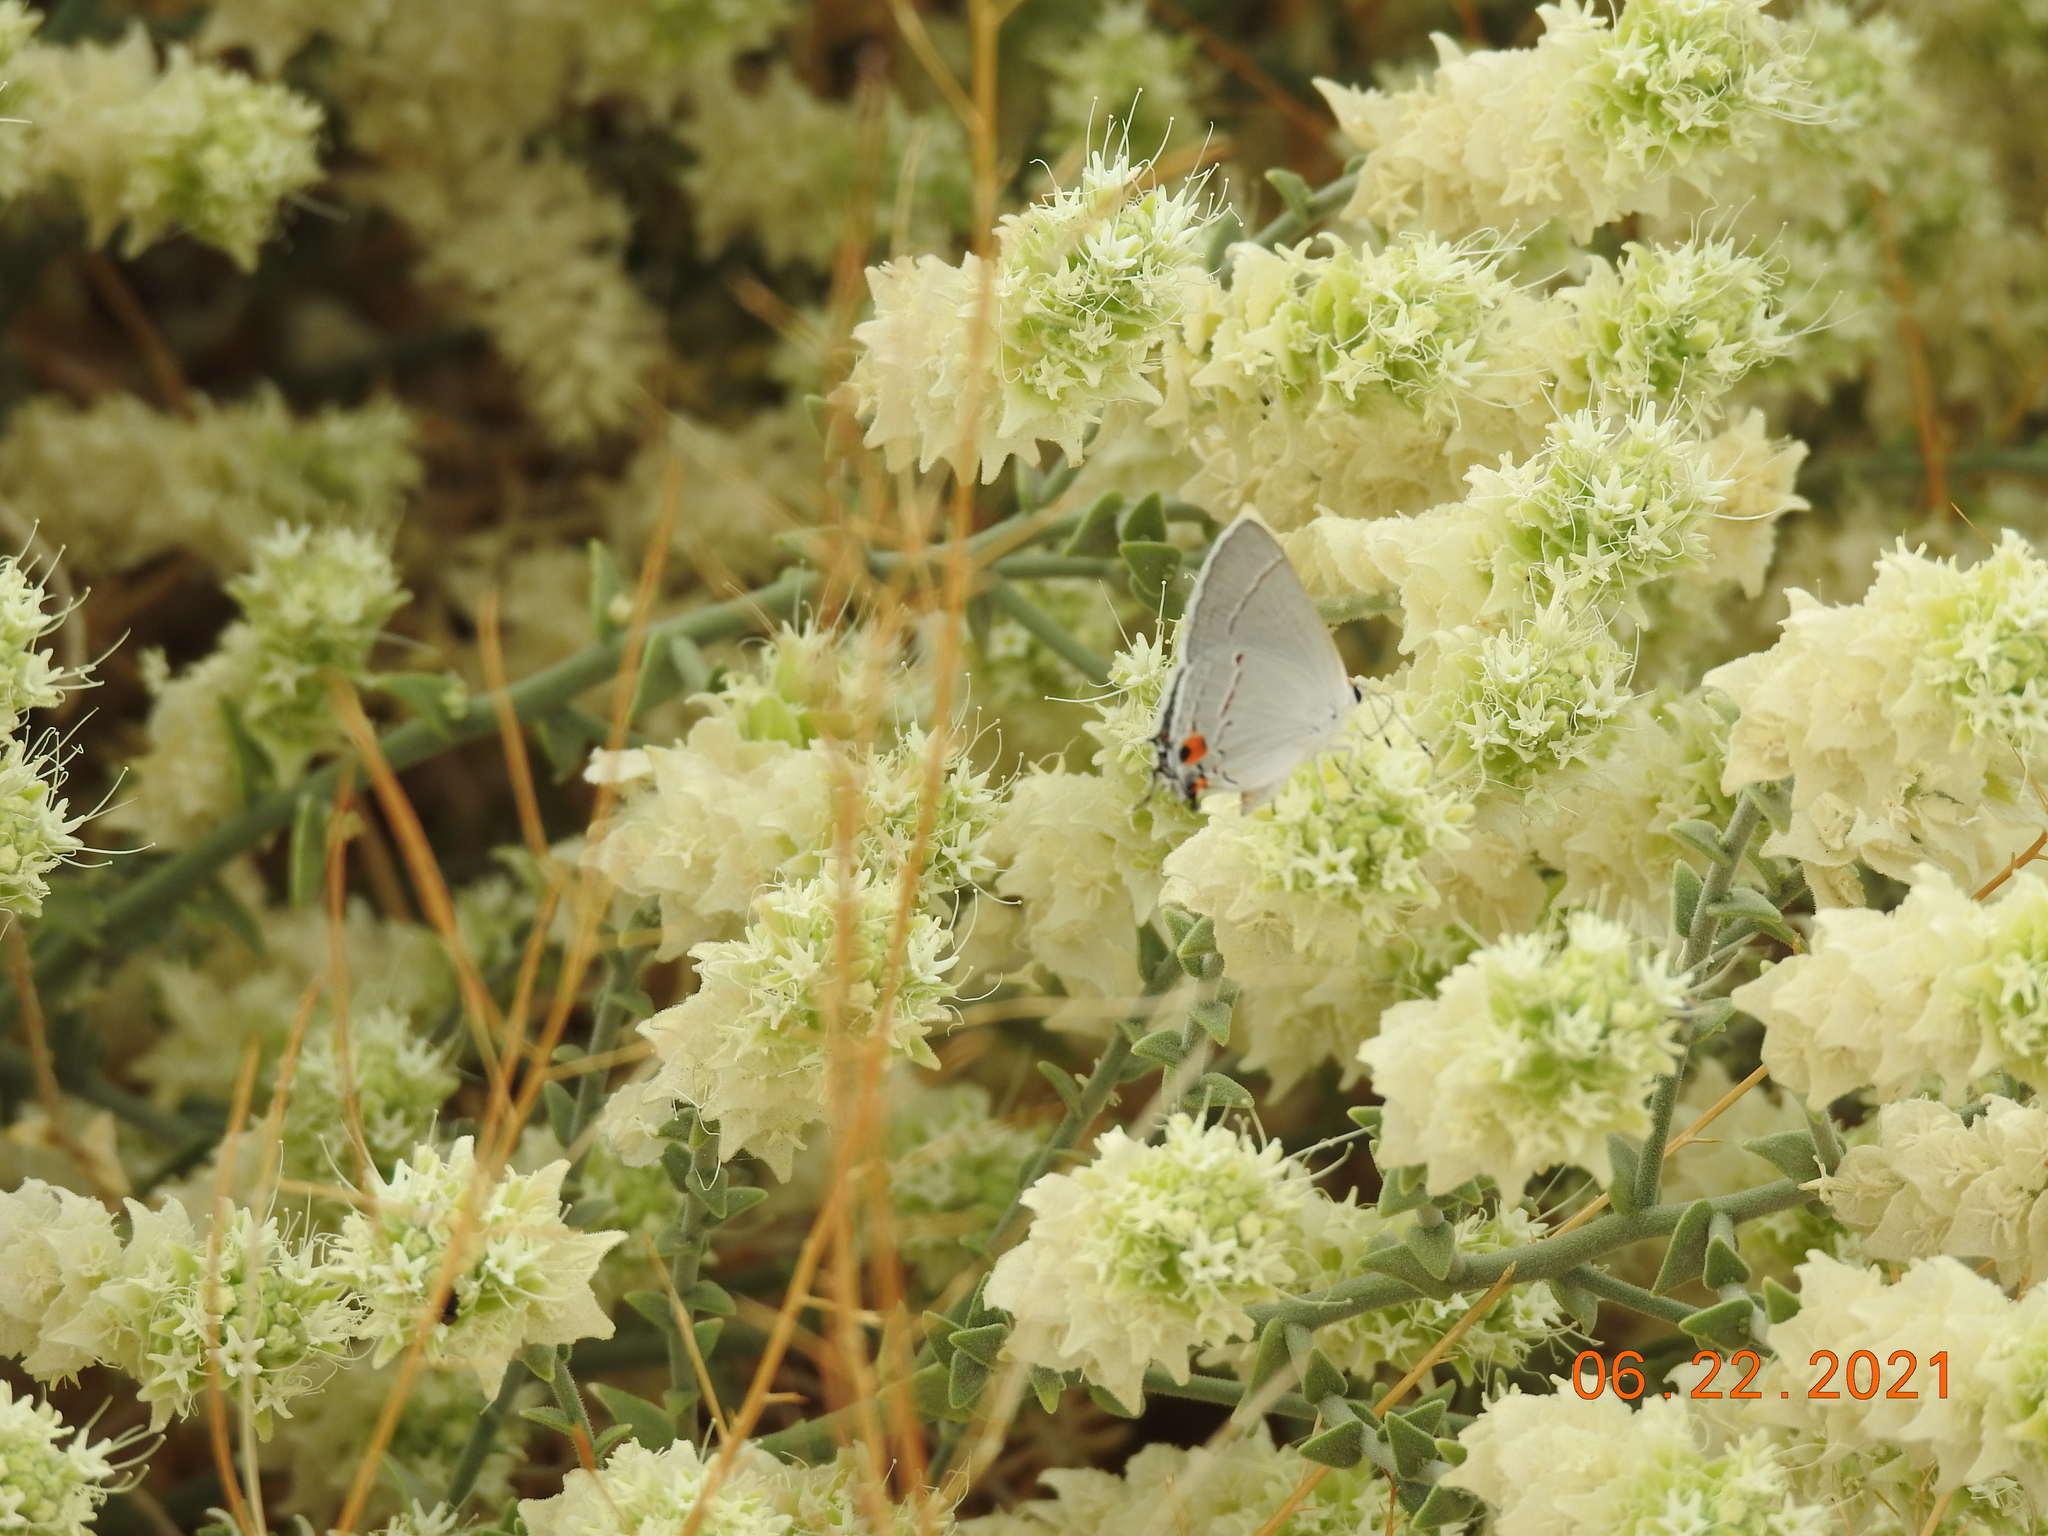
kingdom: Animalia
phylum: Arthropoda
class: Insecta
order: Lepidoptera
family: Lycaenidae
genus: Strymon
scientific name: Strymon melinus
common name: Gray hairstreak
